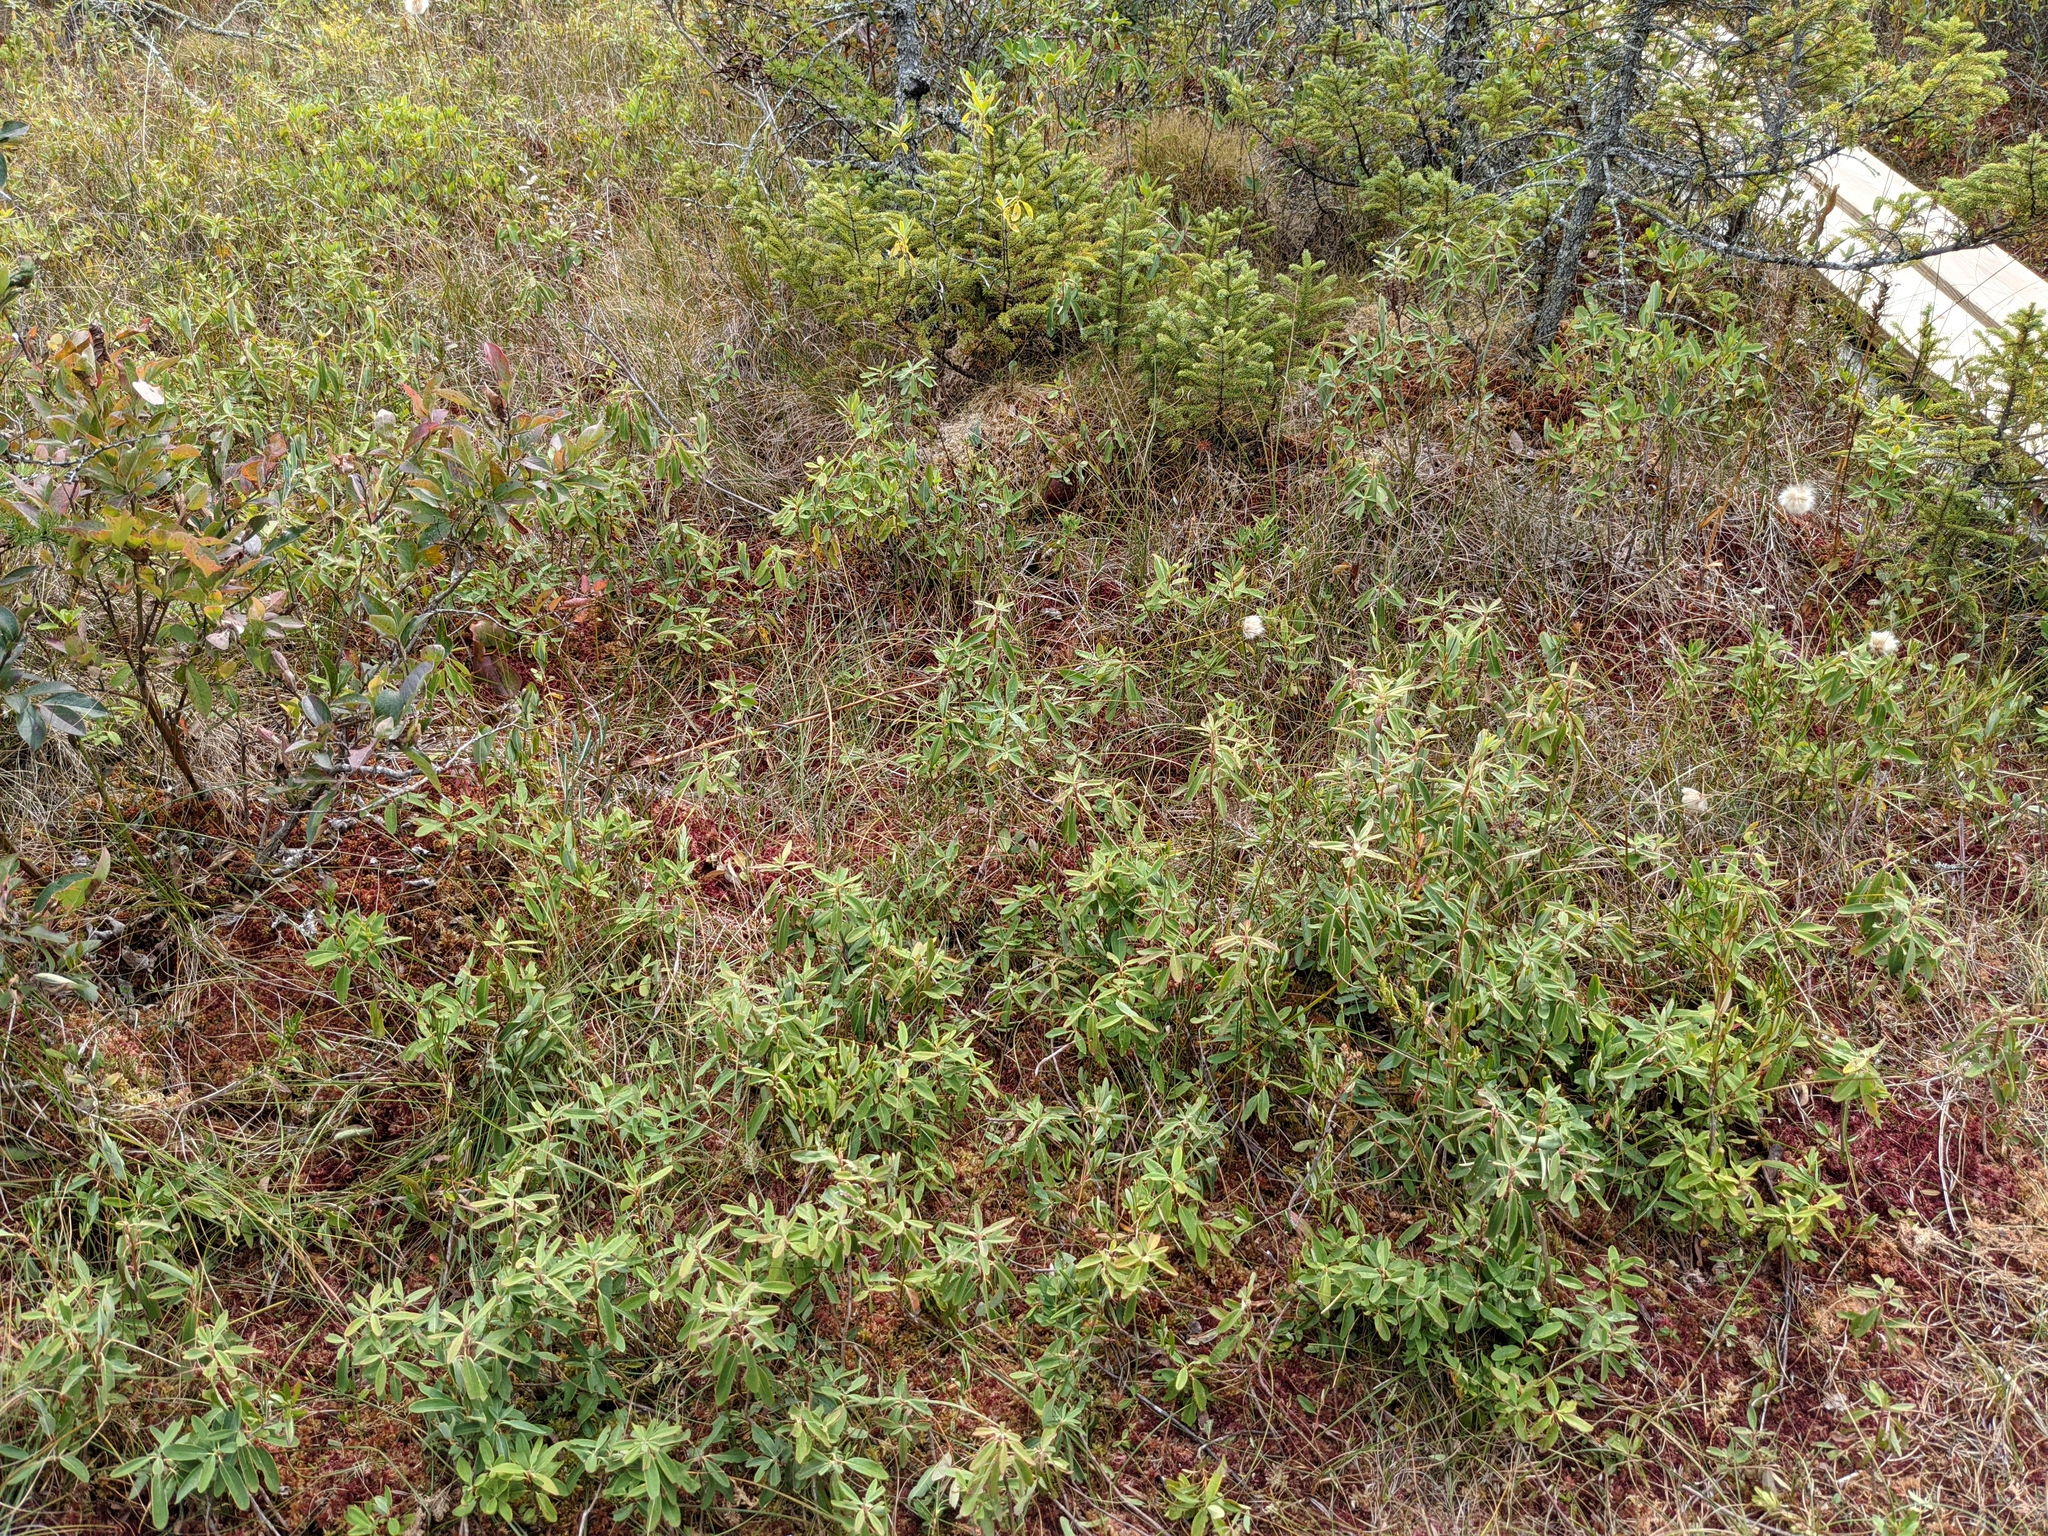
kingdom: Plantae
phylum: Tracheophyta
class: Magnoliopsida
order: Ericales
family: Ericaceae
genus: Kalmia
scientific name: Kalmia angustifolia
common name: Sheep-laurel
